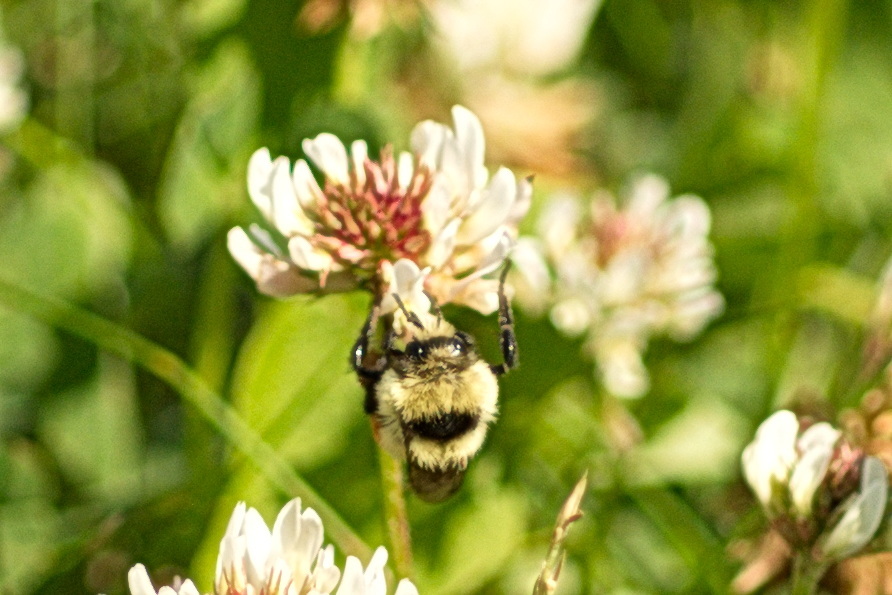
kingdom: Animalia
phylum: Arthropoda
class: Insecta
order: Hymenoptera
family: Apidae
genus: Bombus
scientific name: Bombus huntii
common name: Hunt bumble bee
